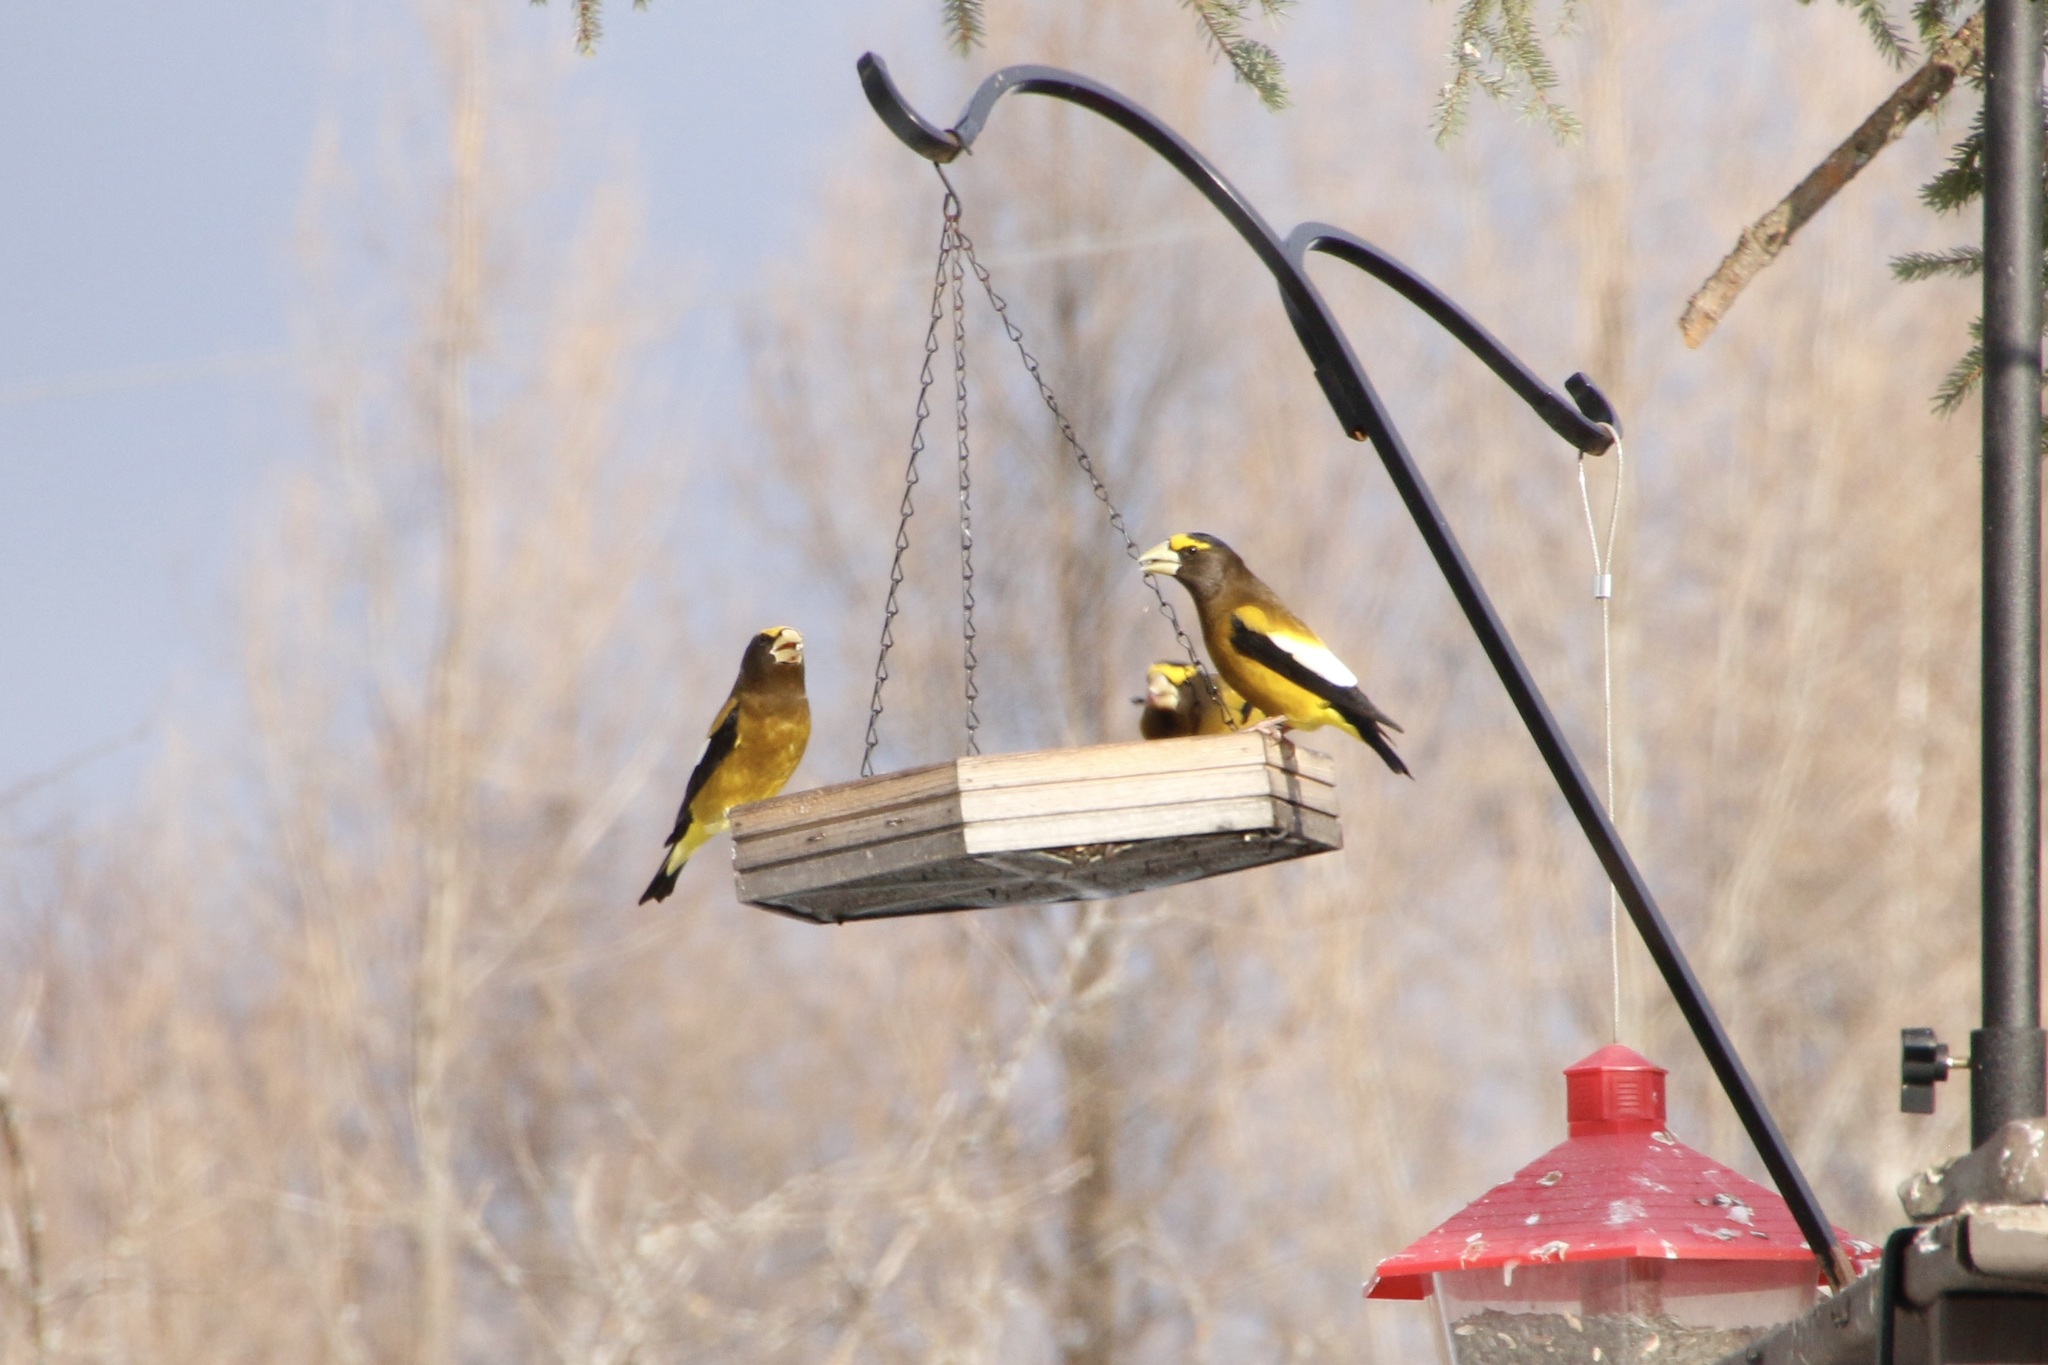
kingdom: Animalia
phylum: Chordata
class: Aves
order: Passeriformes
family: Fringillidae
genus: Hesperiphona
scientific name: Hesperiphona vespertina
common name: Evening grosbeak
